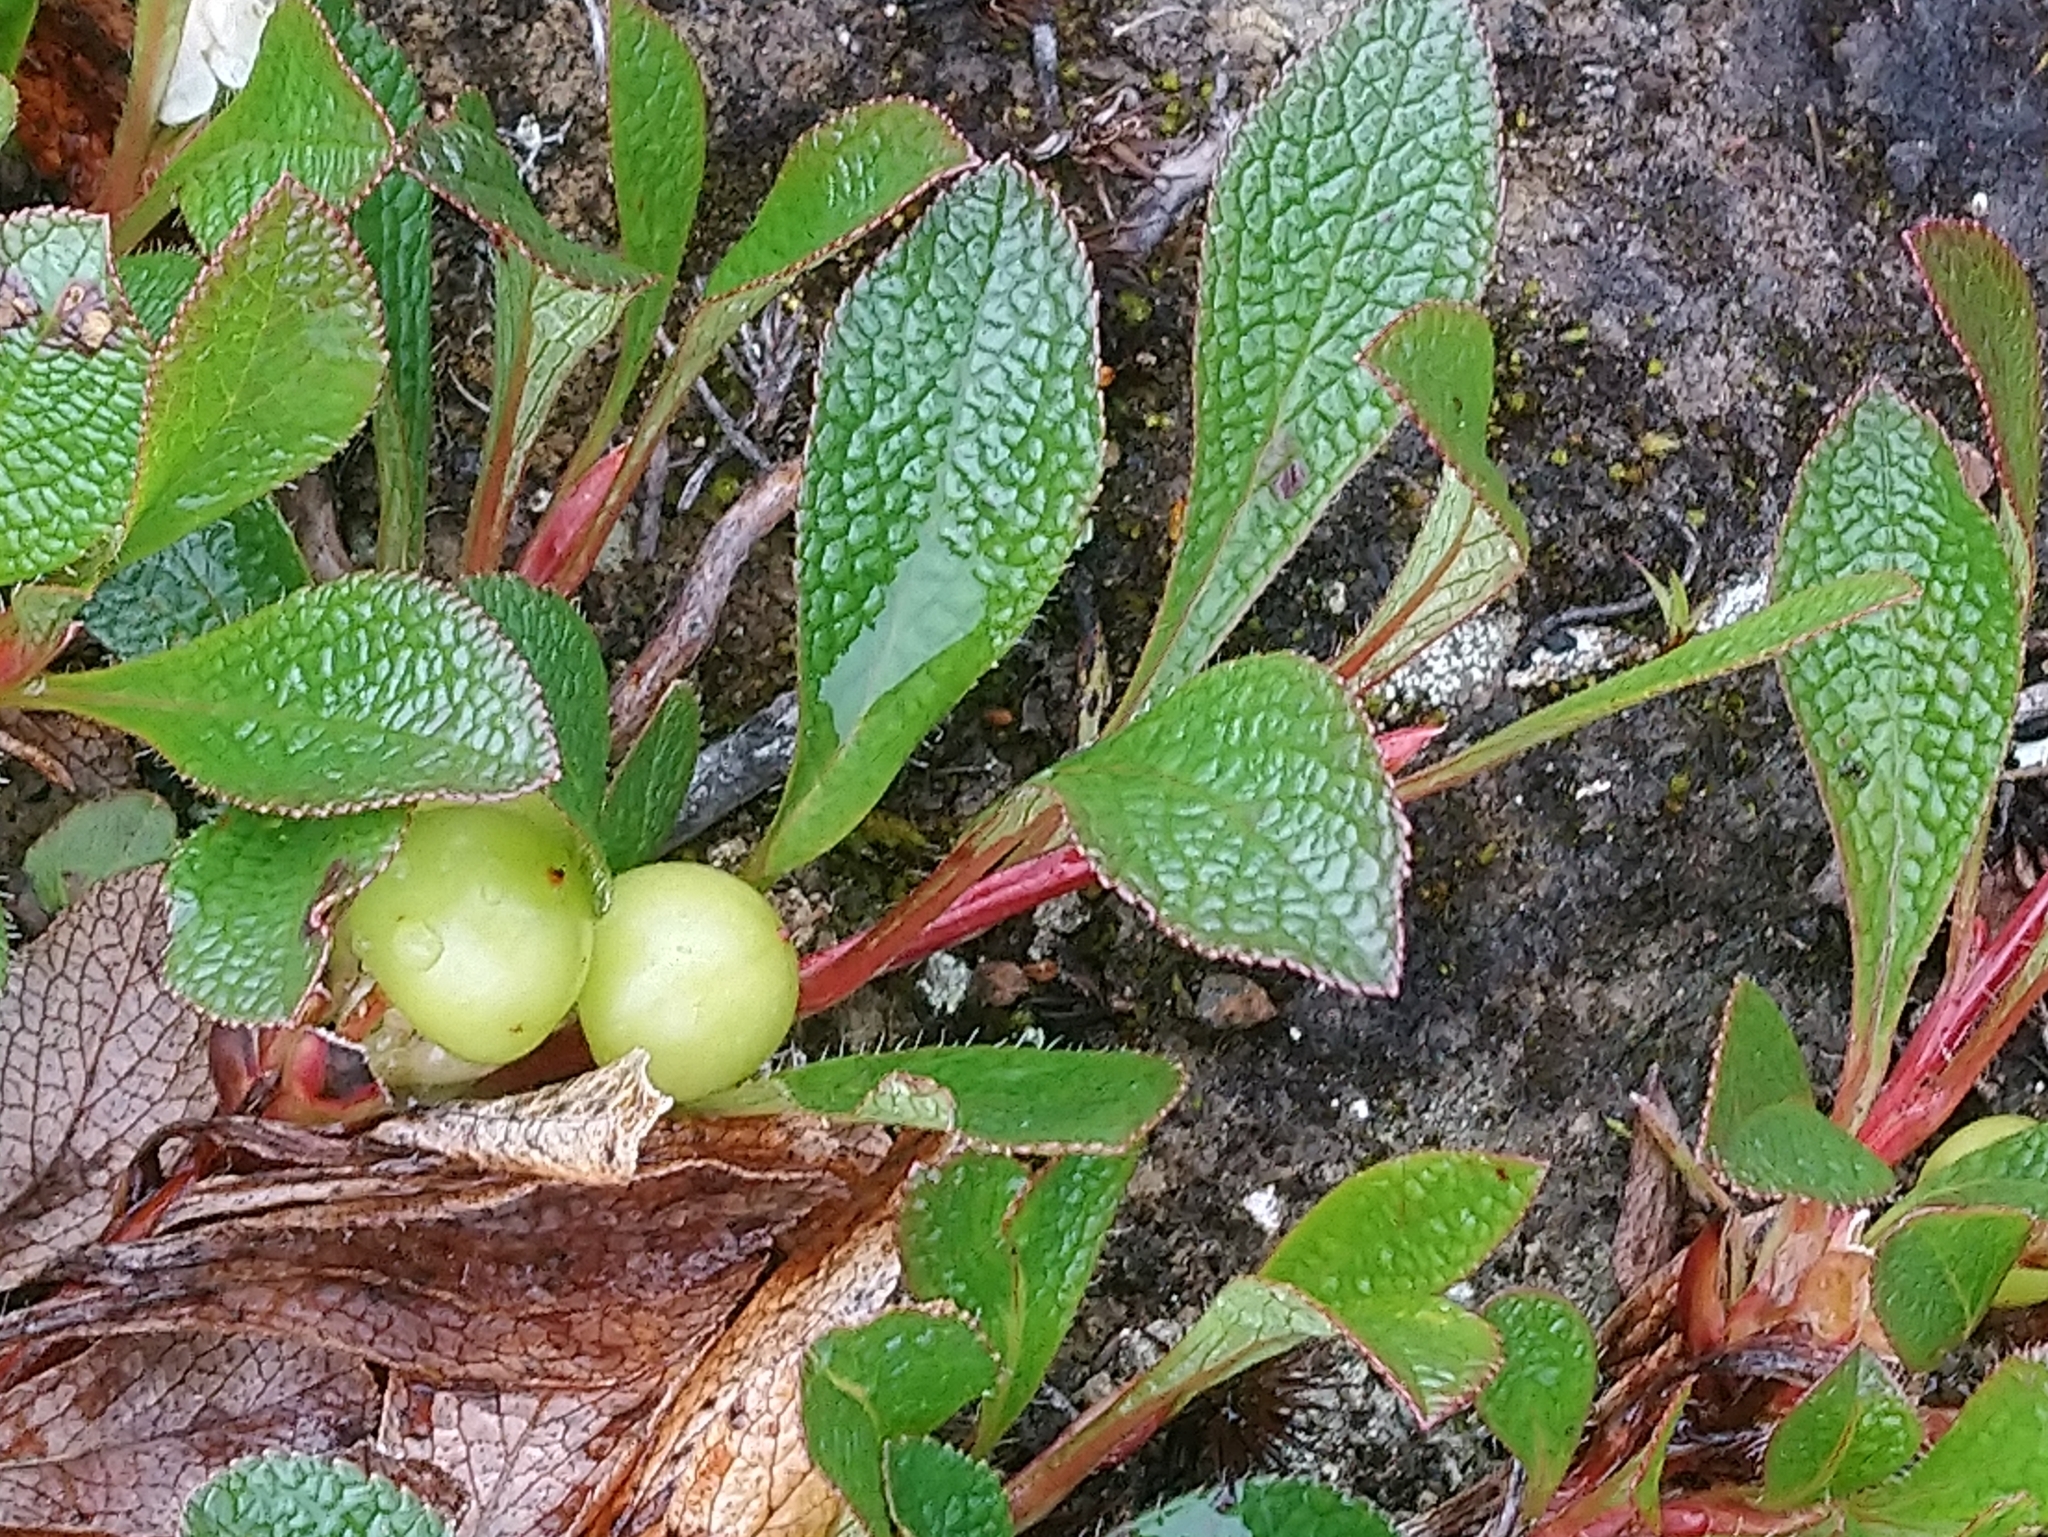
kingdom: Plantae
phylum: Tracheophyta
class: Magnoliopsida
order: Ericales
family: Ericaceae
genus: Arctostaphylos
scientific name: Arctostaphylos alpinus
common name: Alpine bearberry
